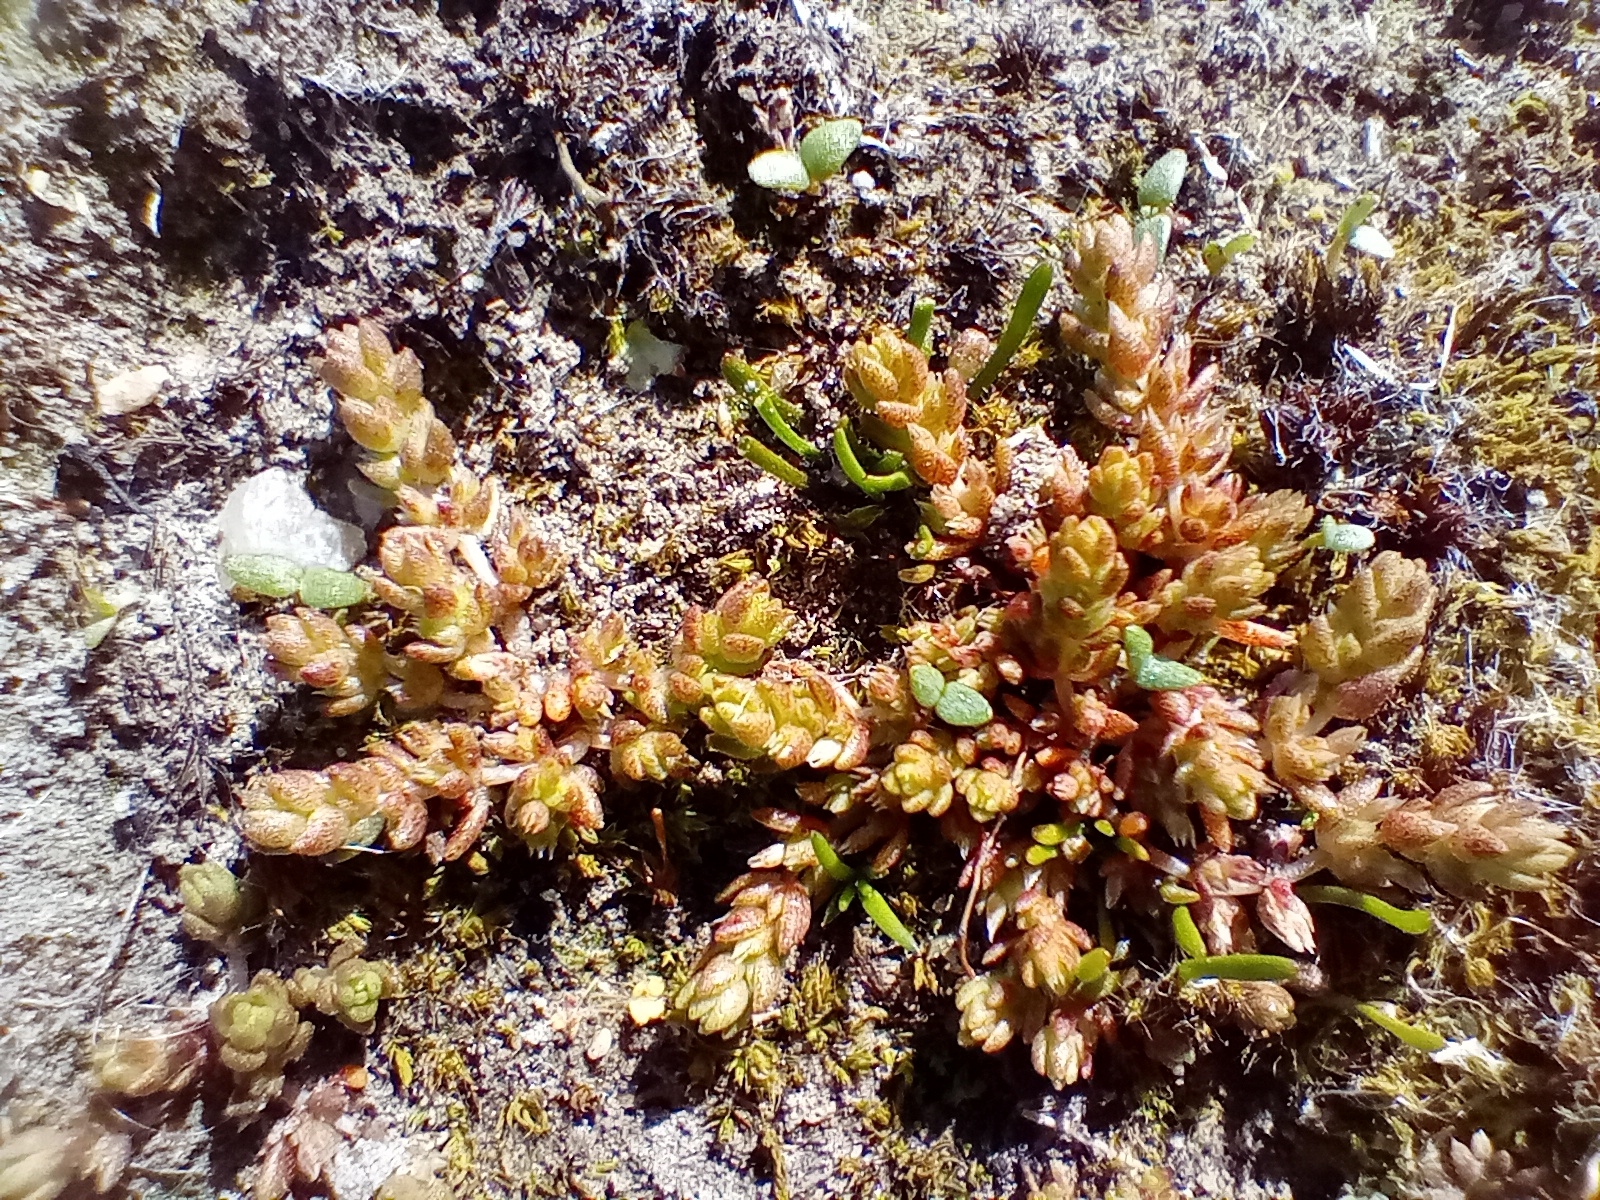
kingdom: Plantae
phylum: Tracheophyta
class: Magnoliopsida
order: Saxifragales
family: Crassulaceae
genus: Crassula
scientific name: Crassula colligata
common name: Pygmyweed
